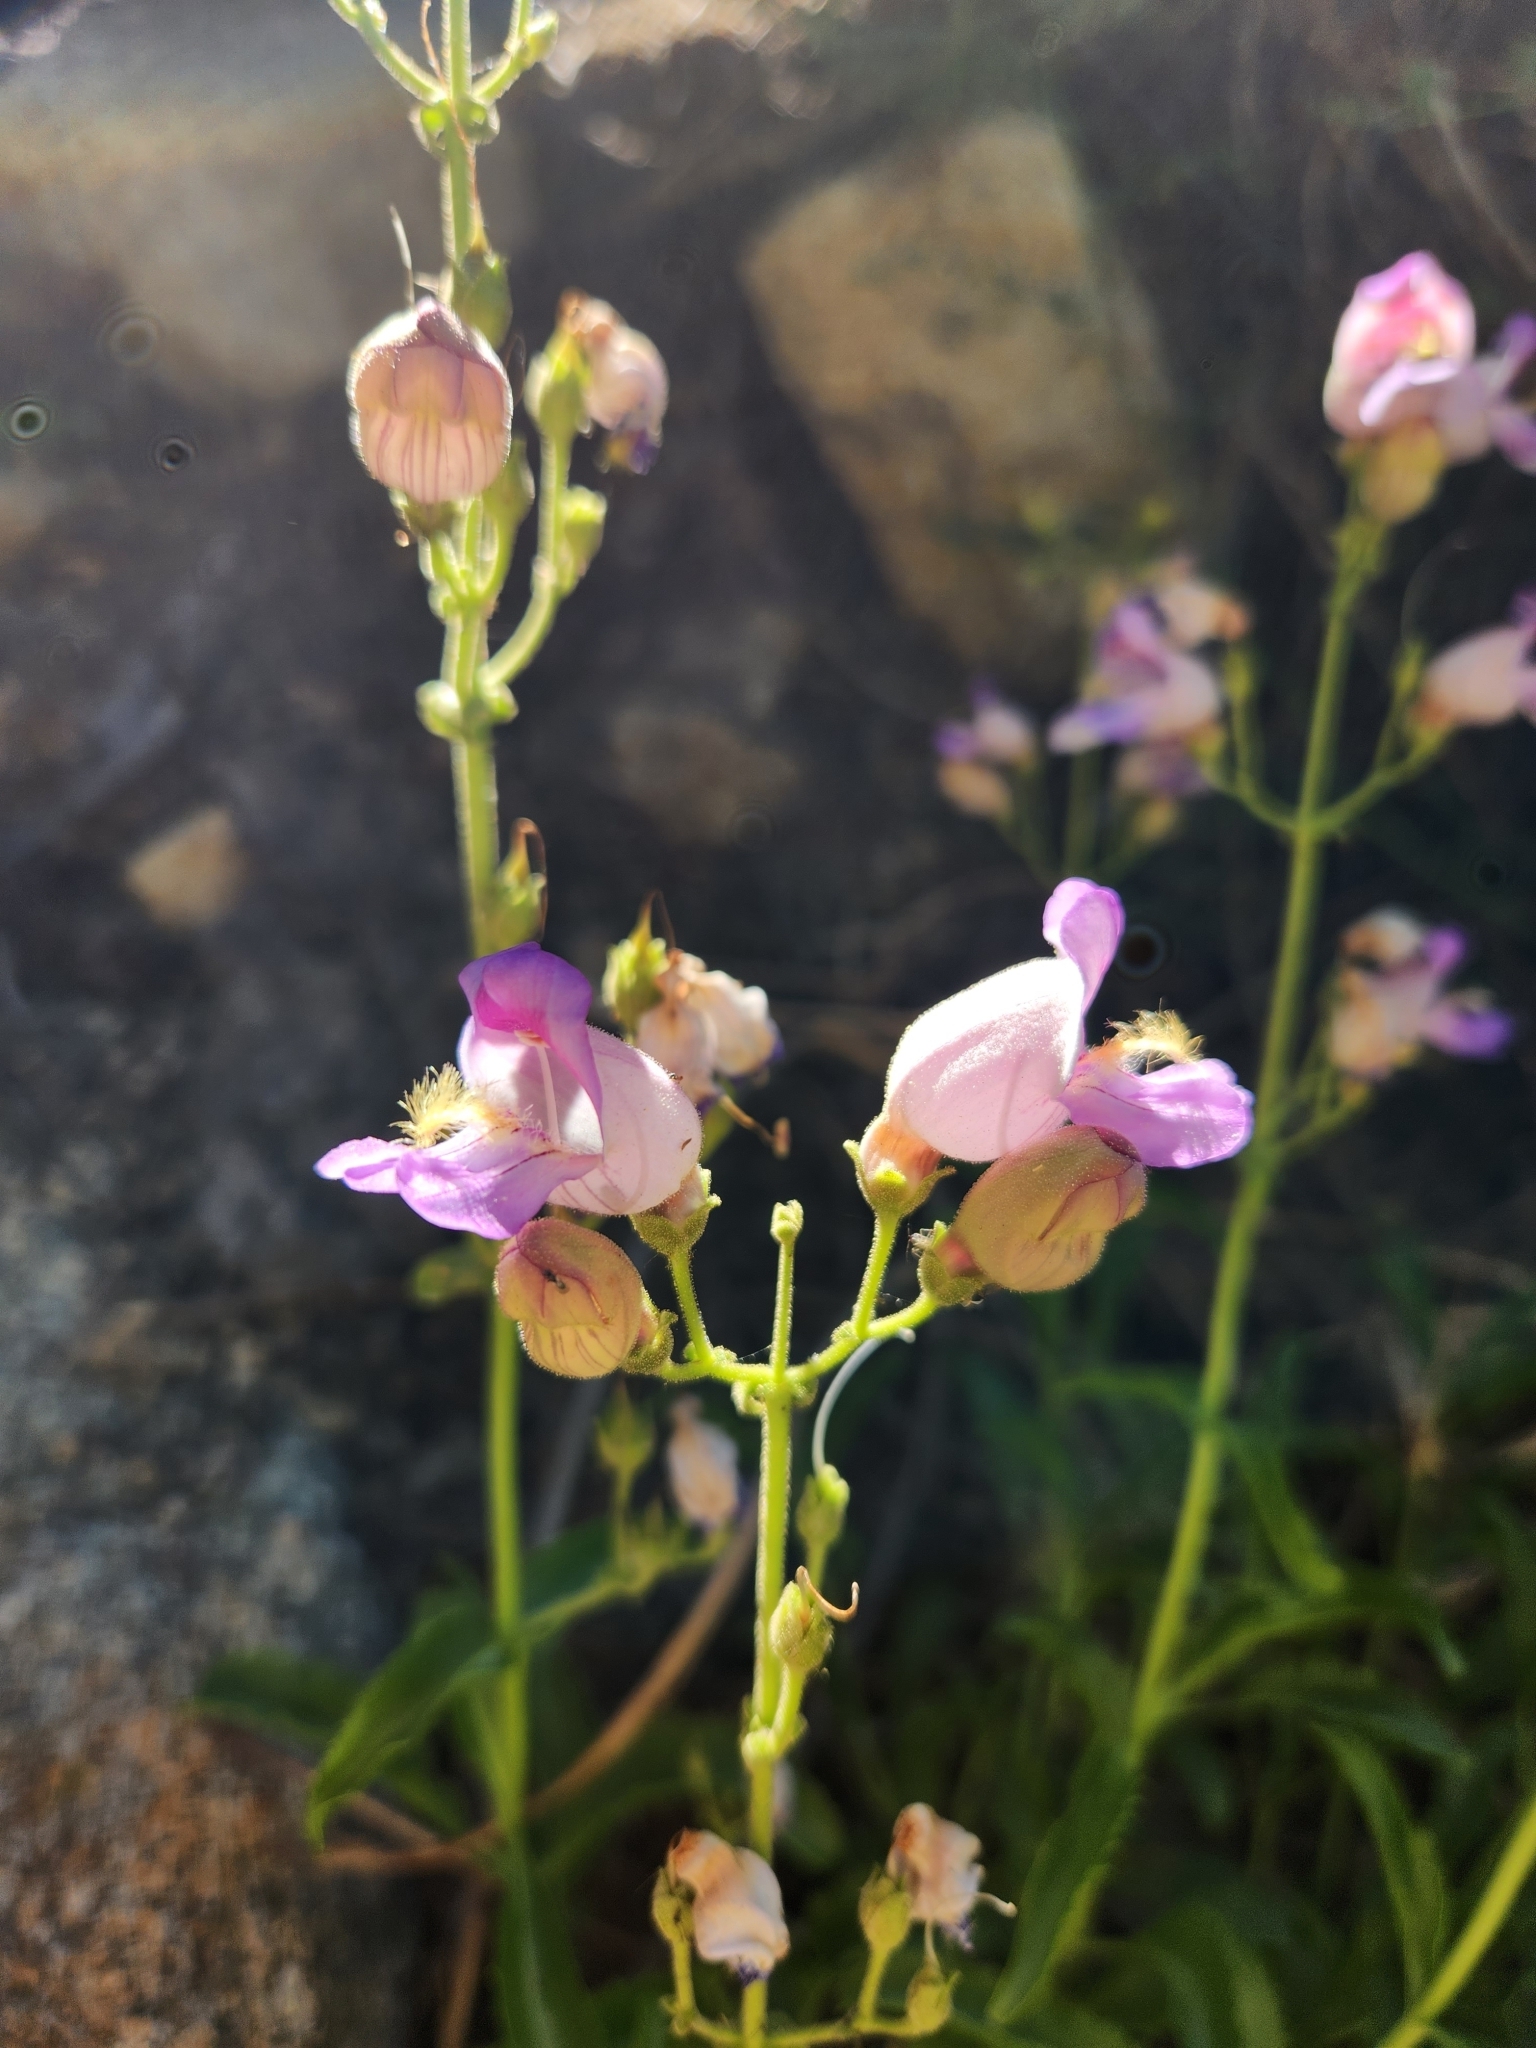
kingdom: Plantae
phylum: Tracheophyta
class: Magnoliopsida
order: Lamiales
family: Plantaginaceae
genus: Penstemon
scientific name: Penstemon grinnellii
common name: Grinnell's beardtongue
